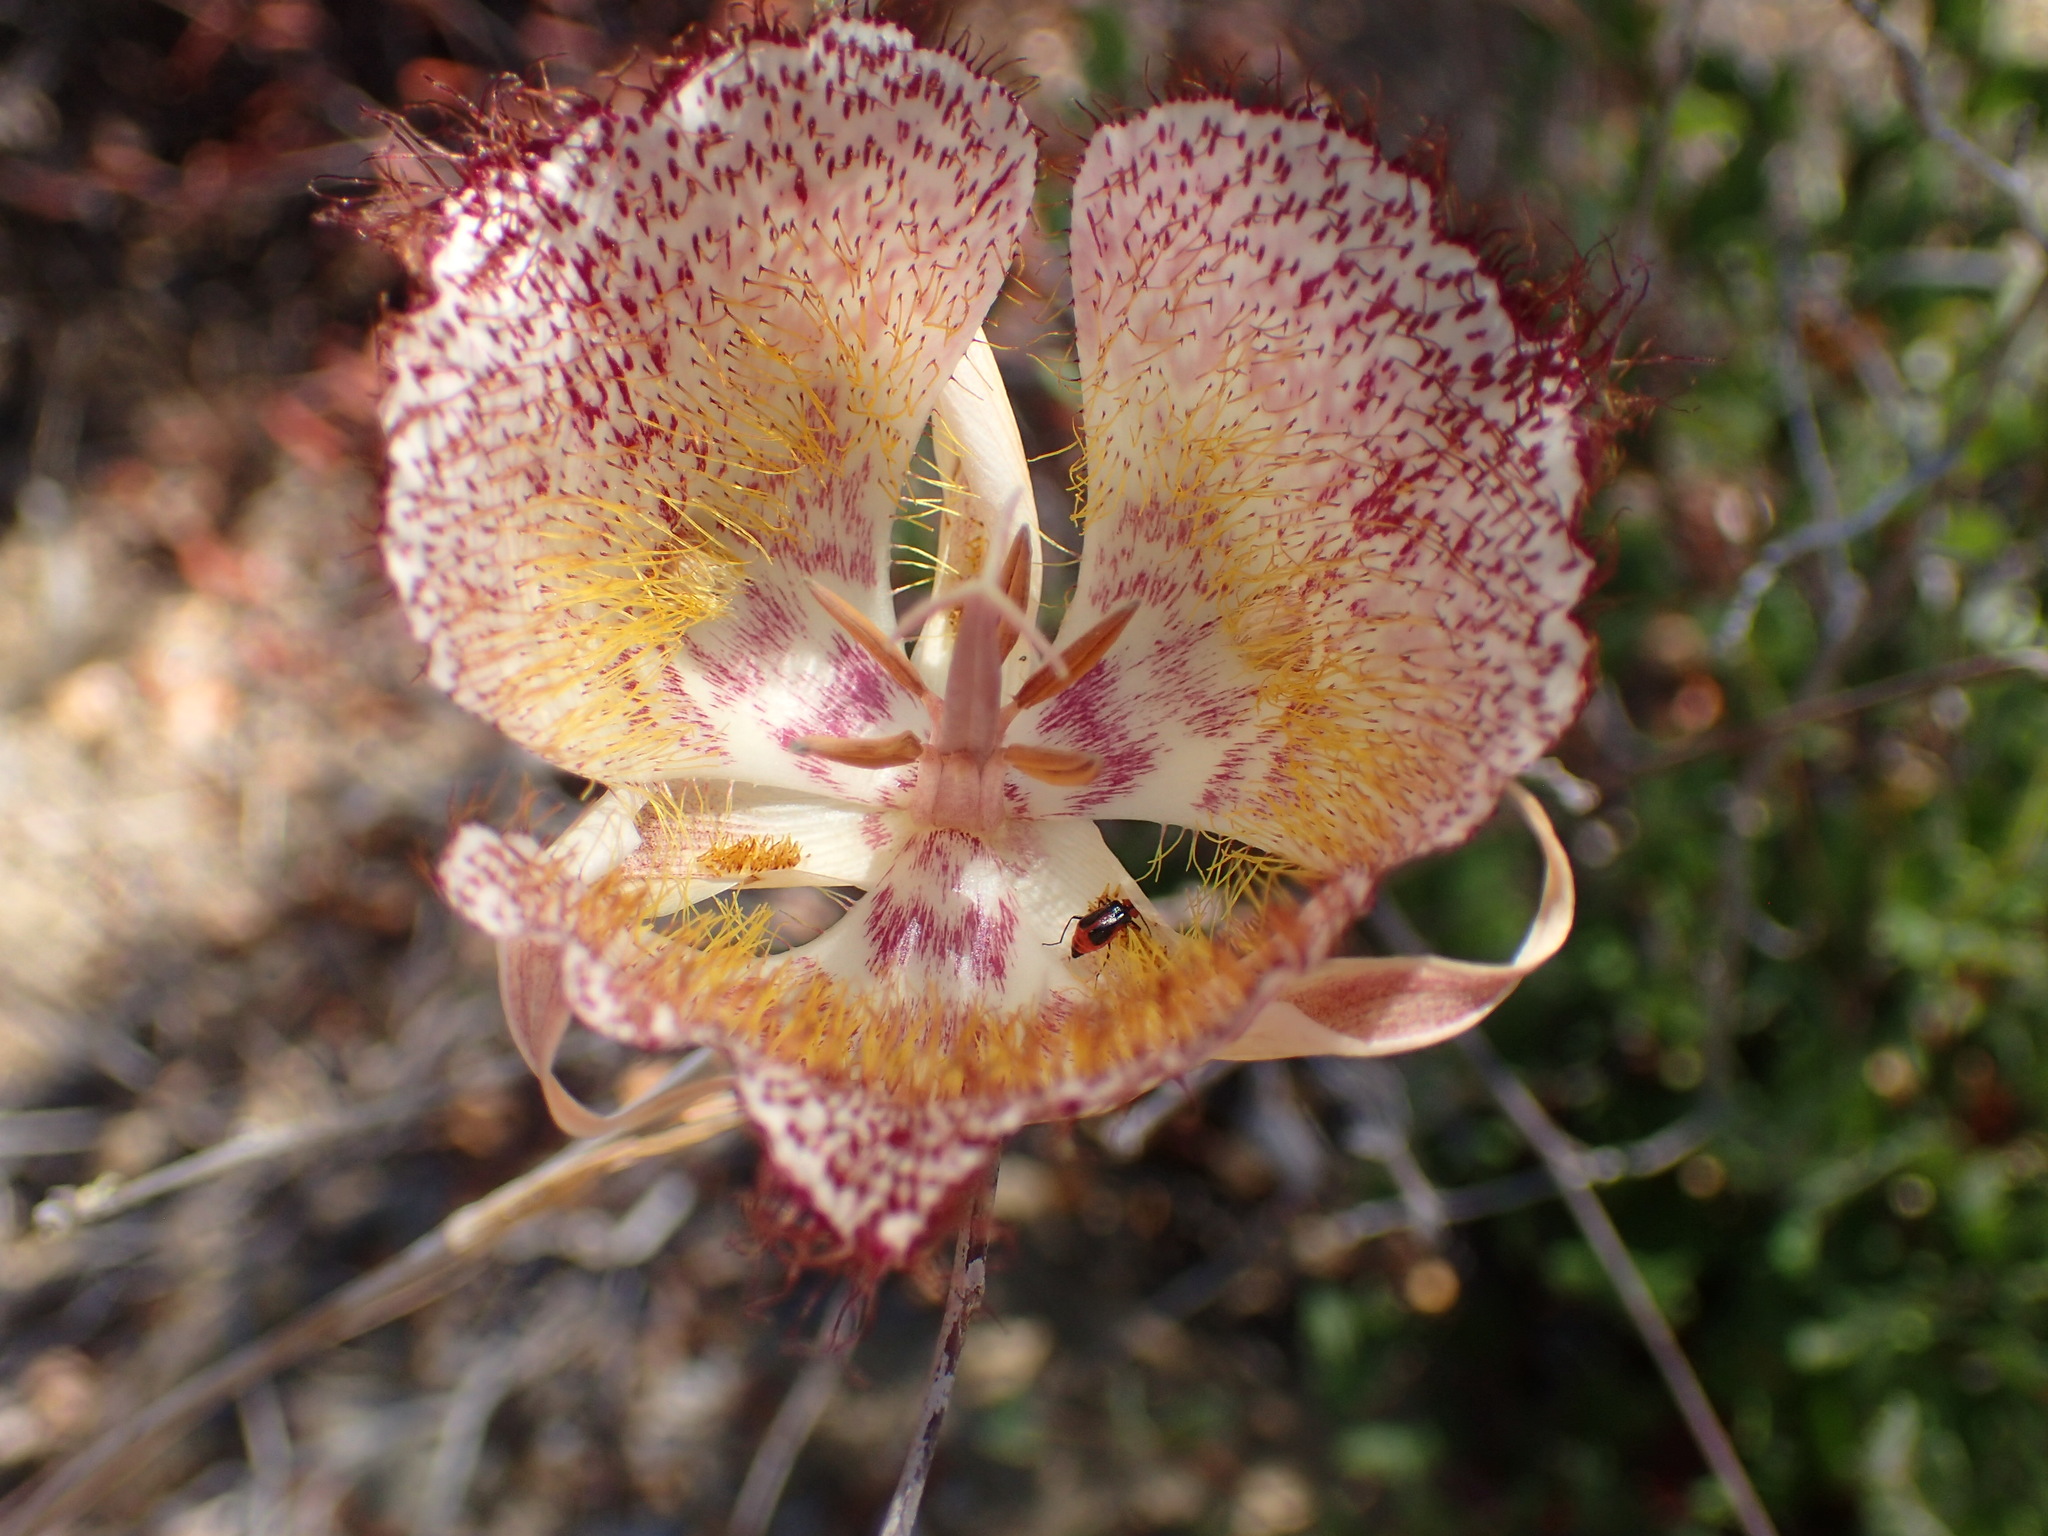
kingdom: Plantae
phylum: Tracheophyta
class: Liliopsida
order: Liliales
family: Liliaceae
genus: Calochortus
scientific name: Calochortus fimbriatus
